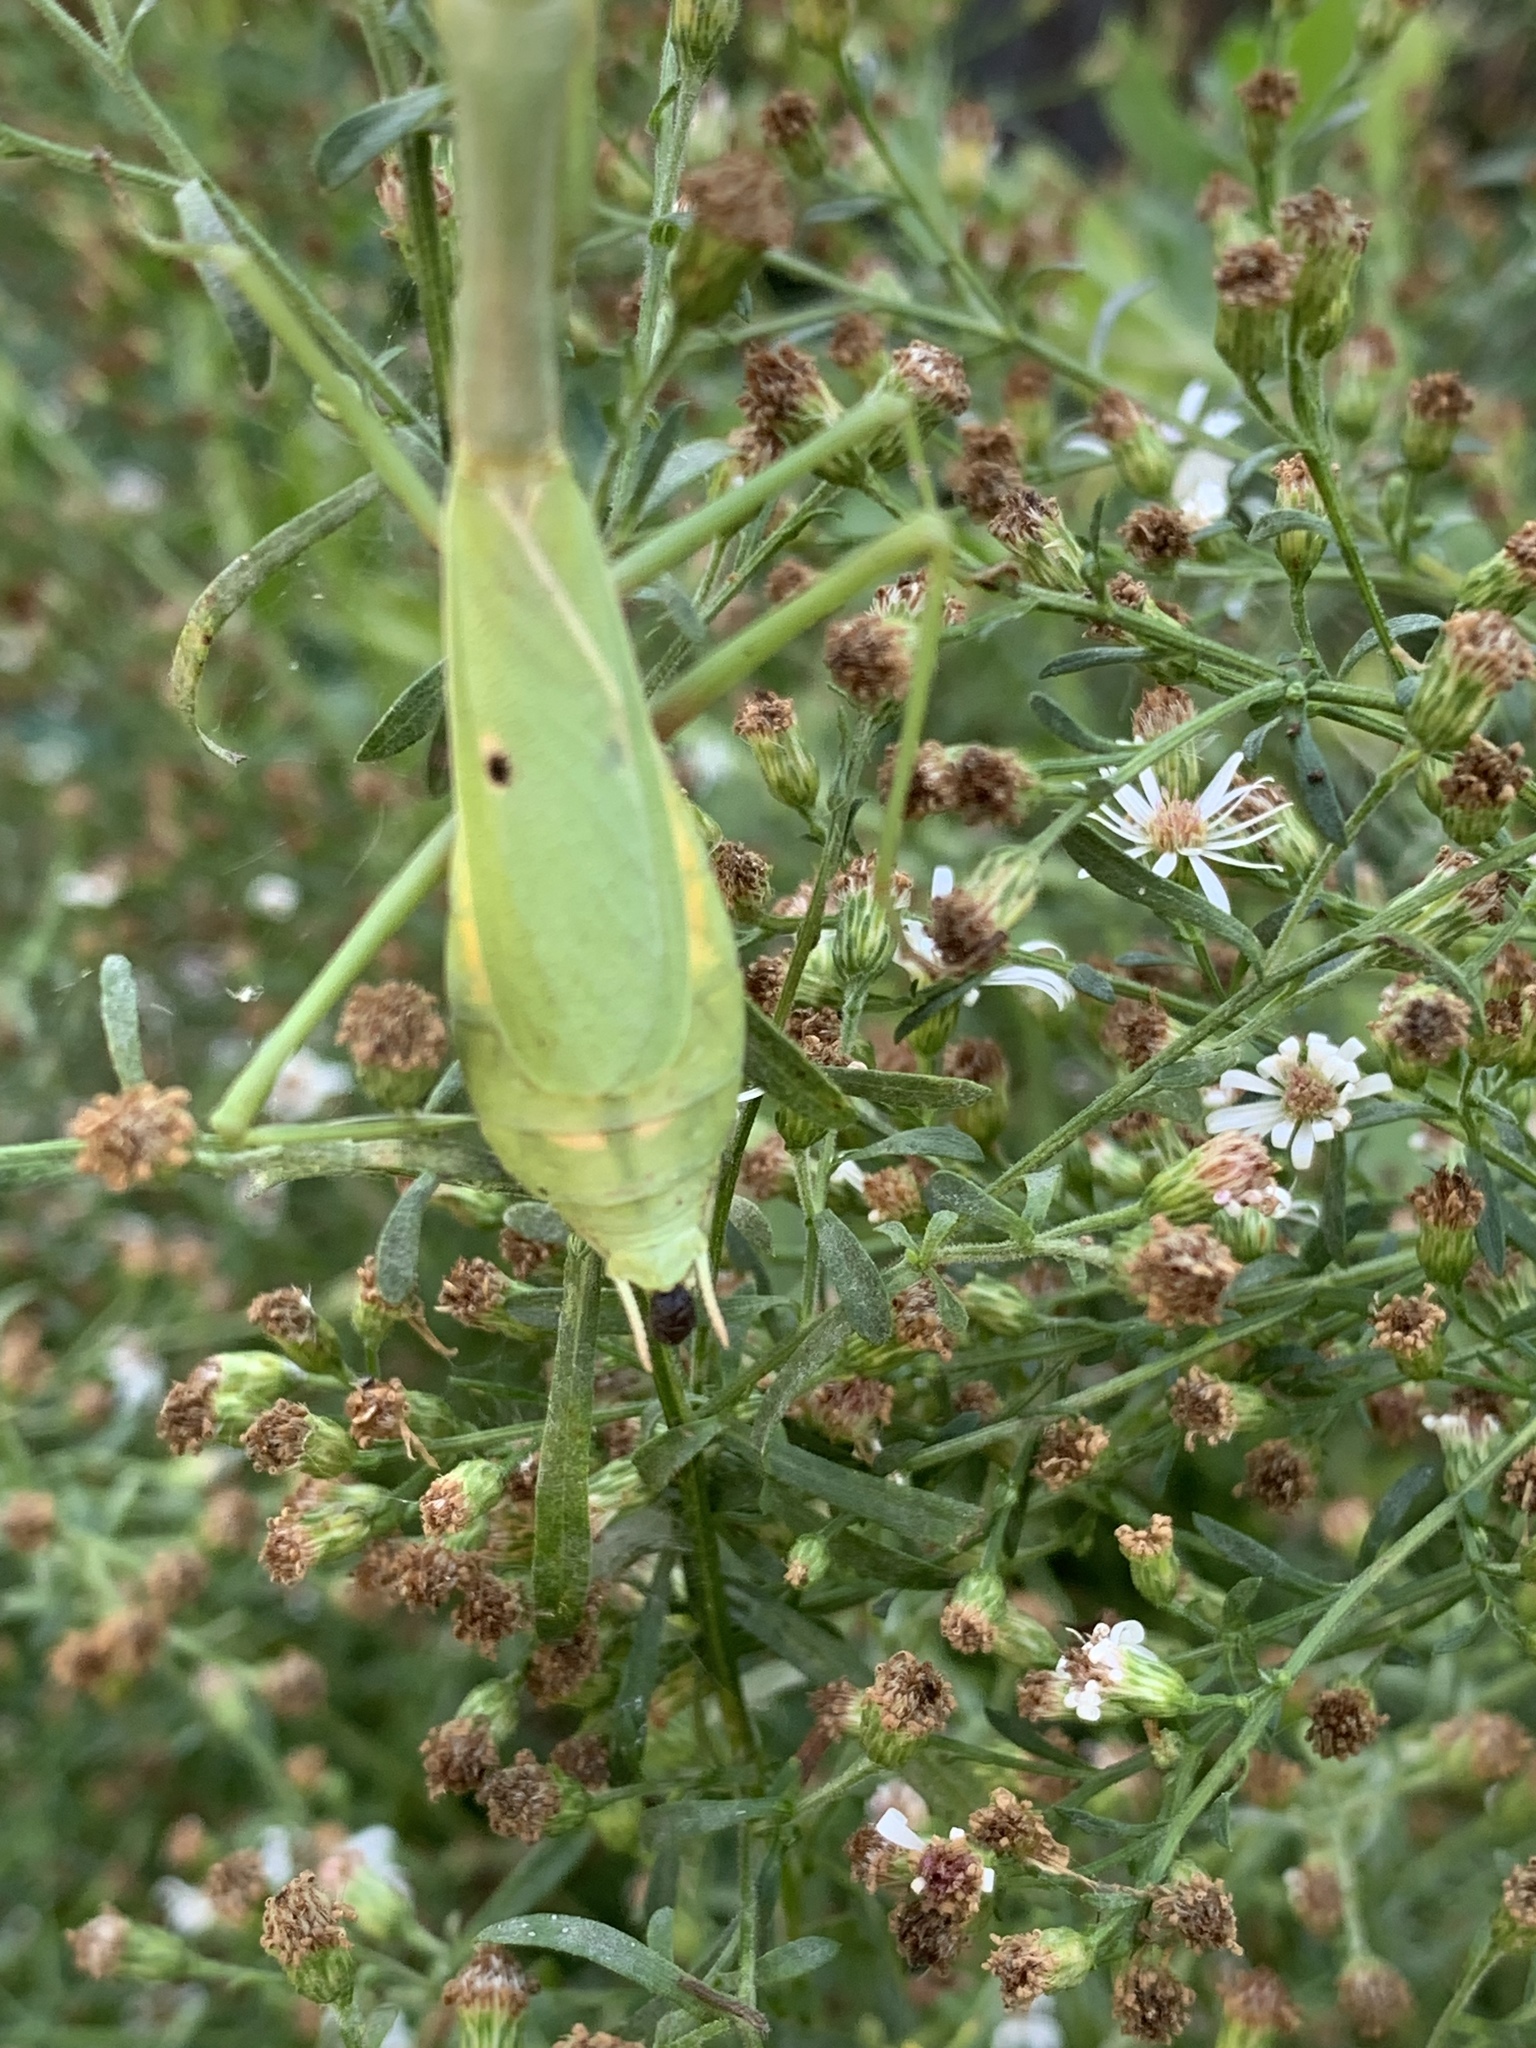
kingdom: Animalia
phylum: Arthropoda
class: Insecta
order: Mantodea
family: Mantidae
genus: Stagmomantis
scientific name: Stagmomantis carolina
